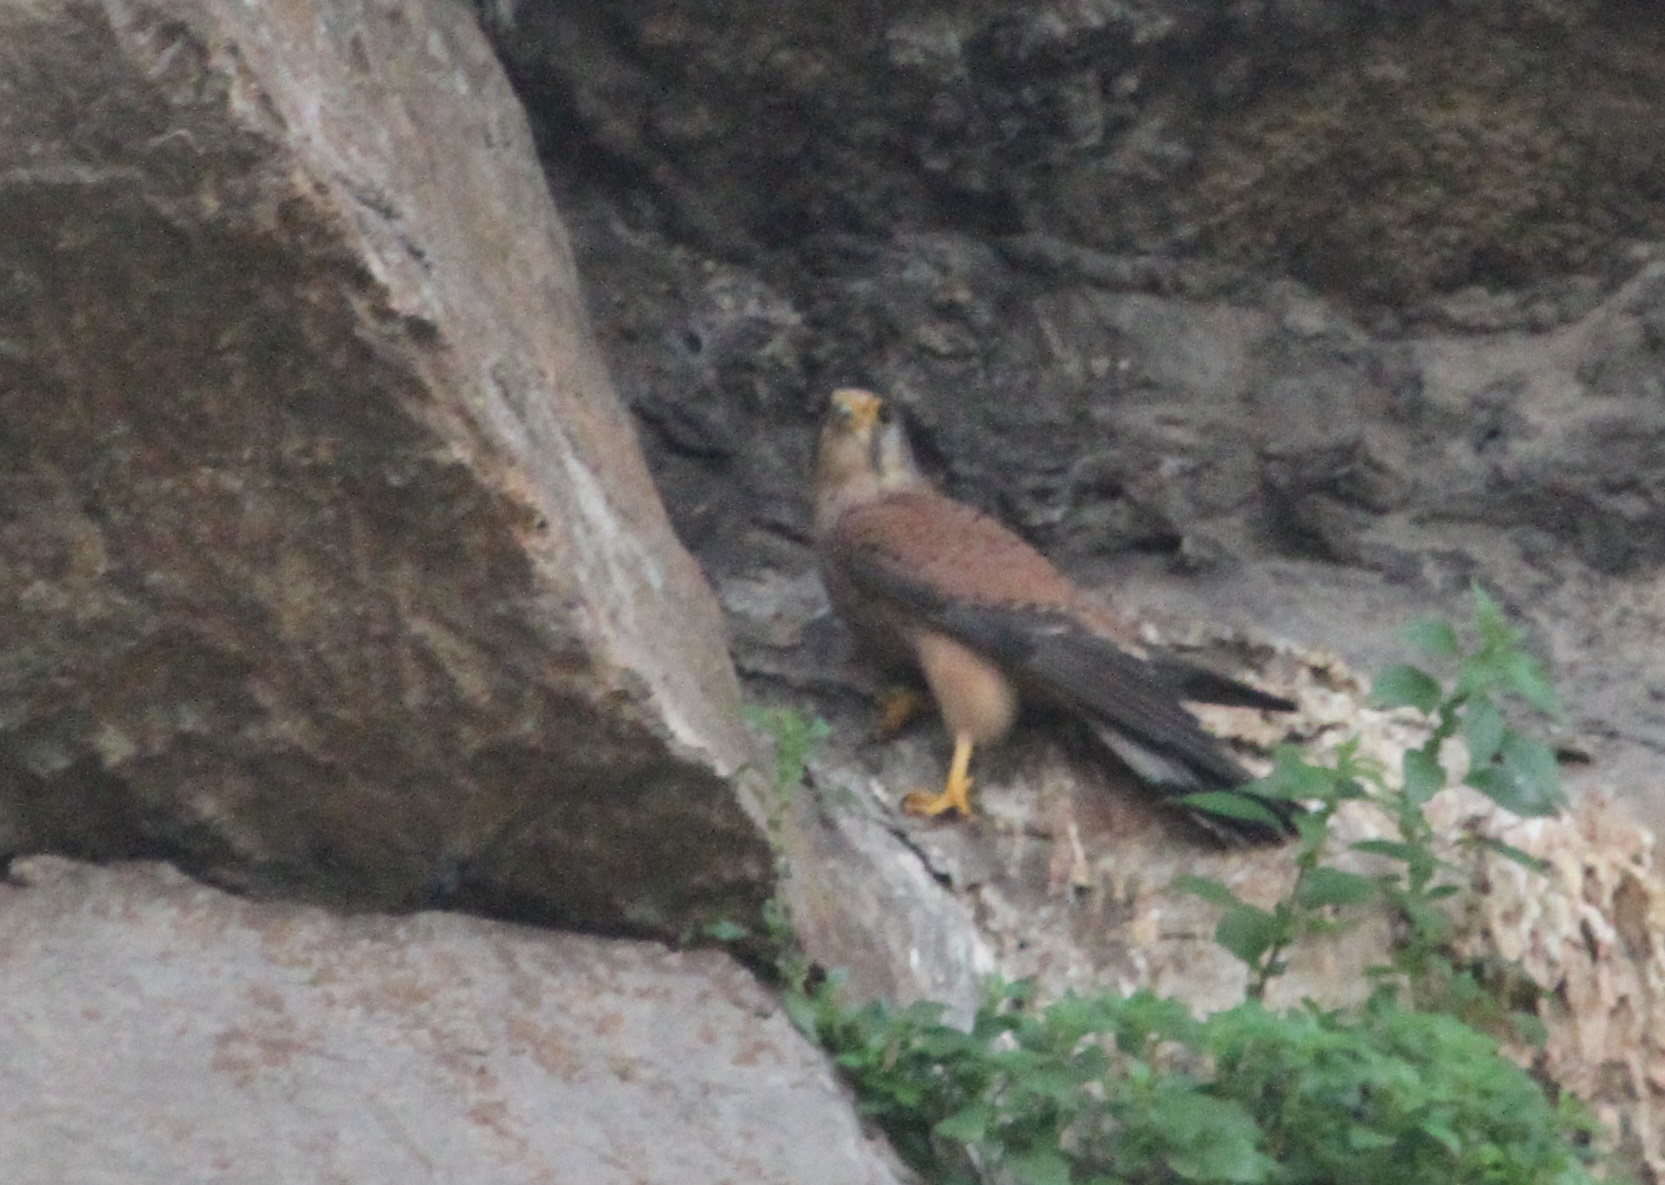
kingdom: Animalia
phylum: Chordata
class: Aves
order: Falconiformes
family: Falconidae
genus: Falco
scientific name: Falco tinnunculus
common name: Common kestrel
